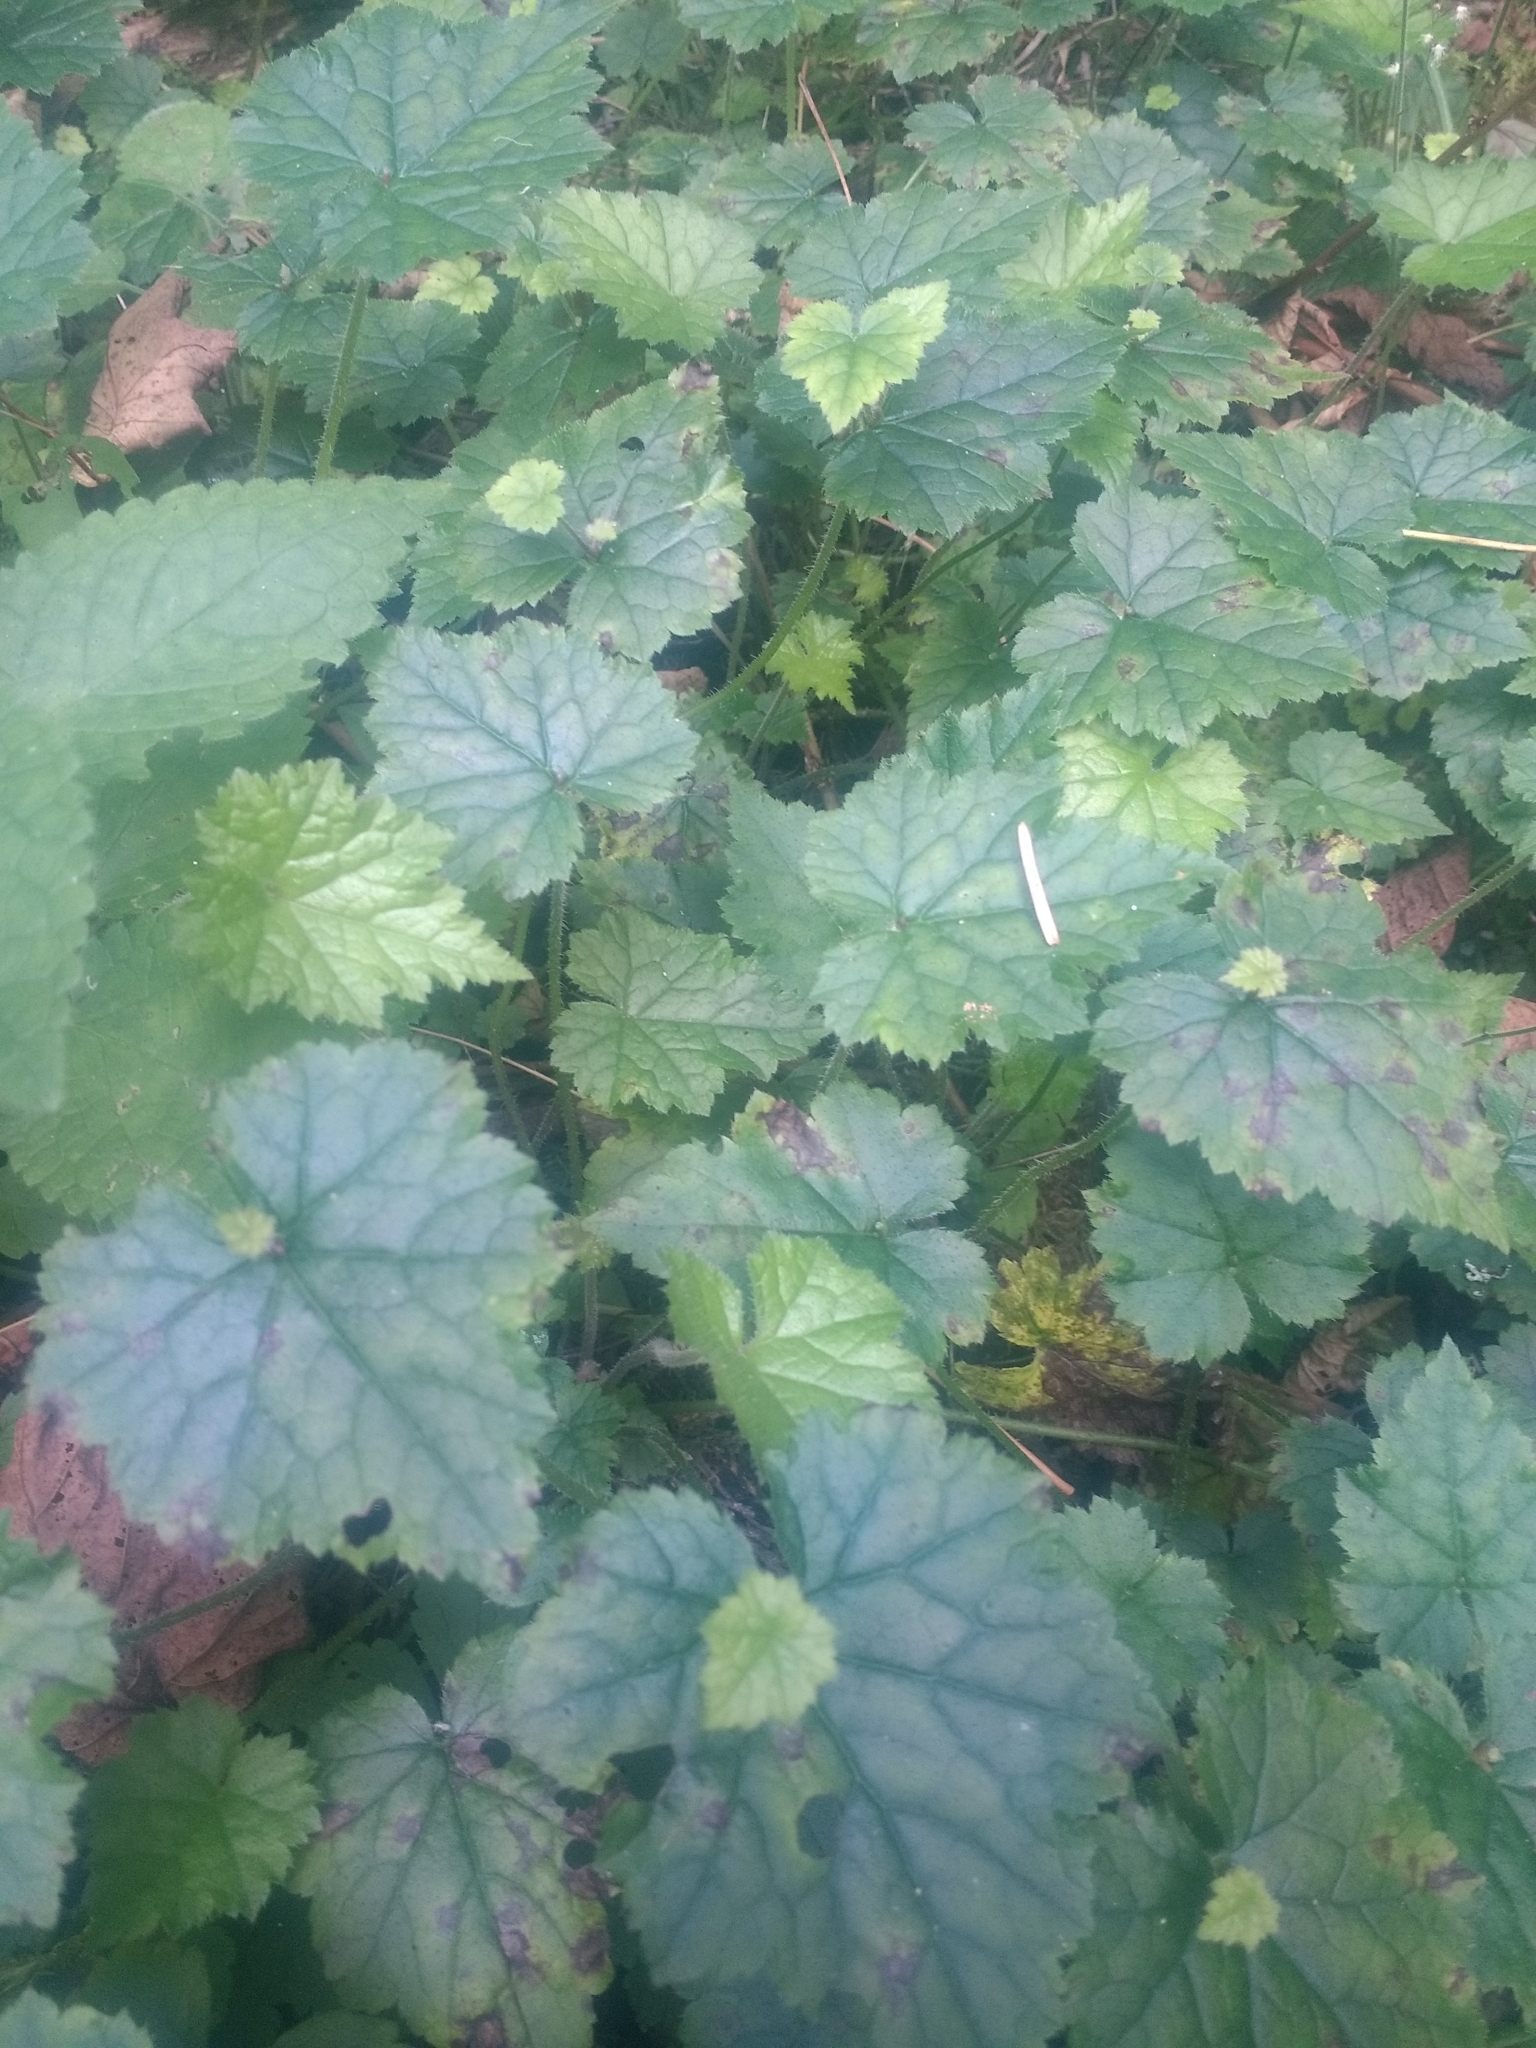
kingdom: Plantae
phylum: Tracheophyta
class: Magnoliopsida
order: Saxifragales
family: Saxifragaceae
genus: Tolmiea
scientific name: Tolmiea menziesii
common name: Pick-a-back-plant
